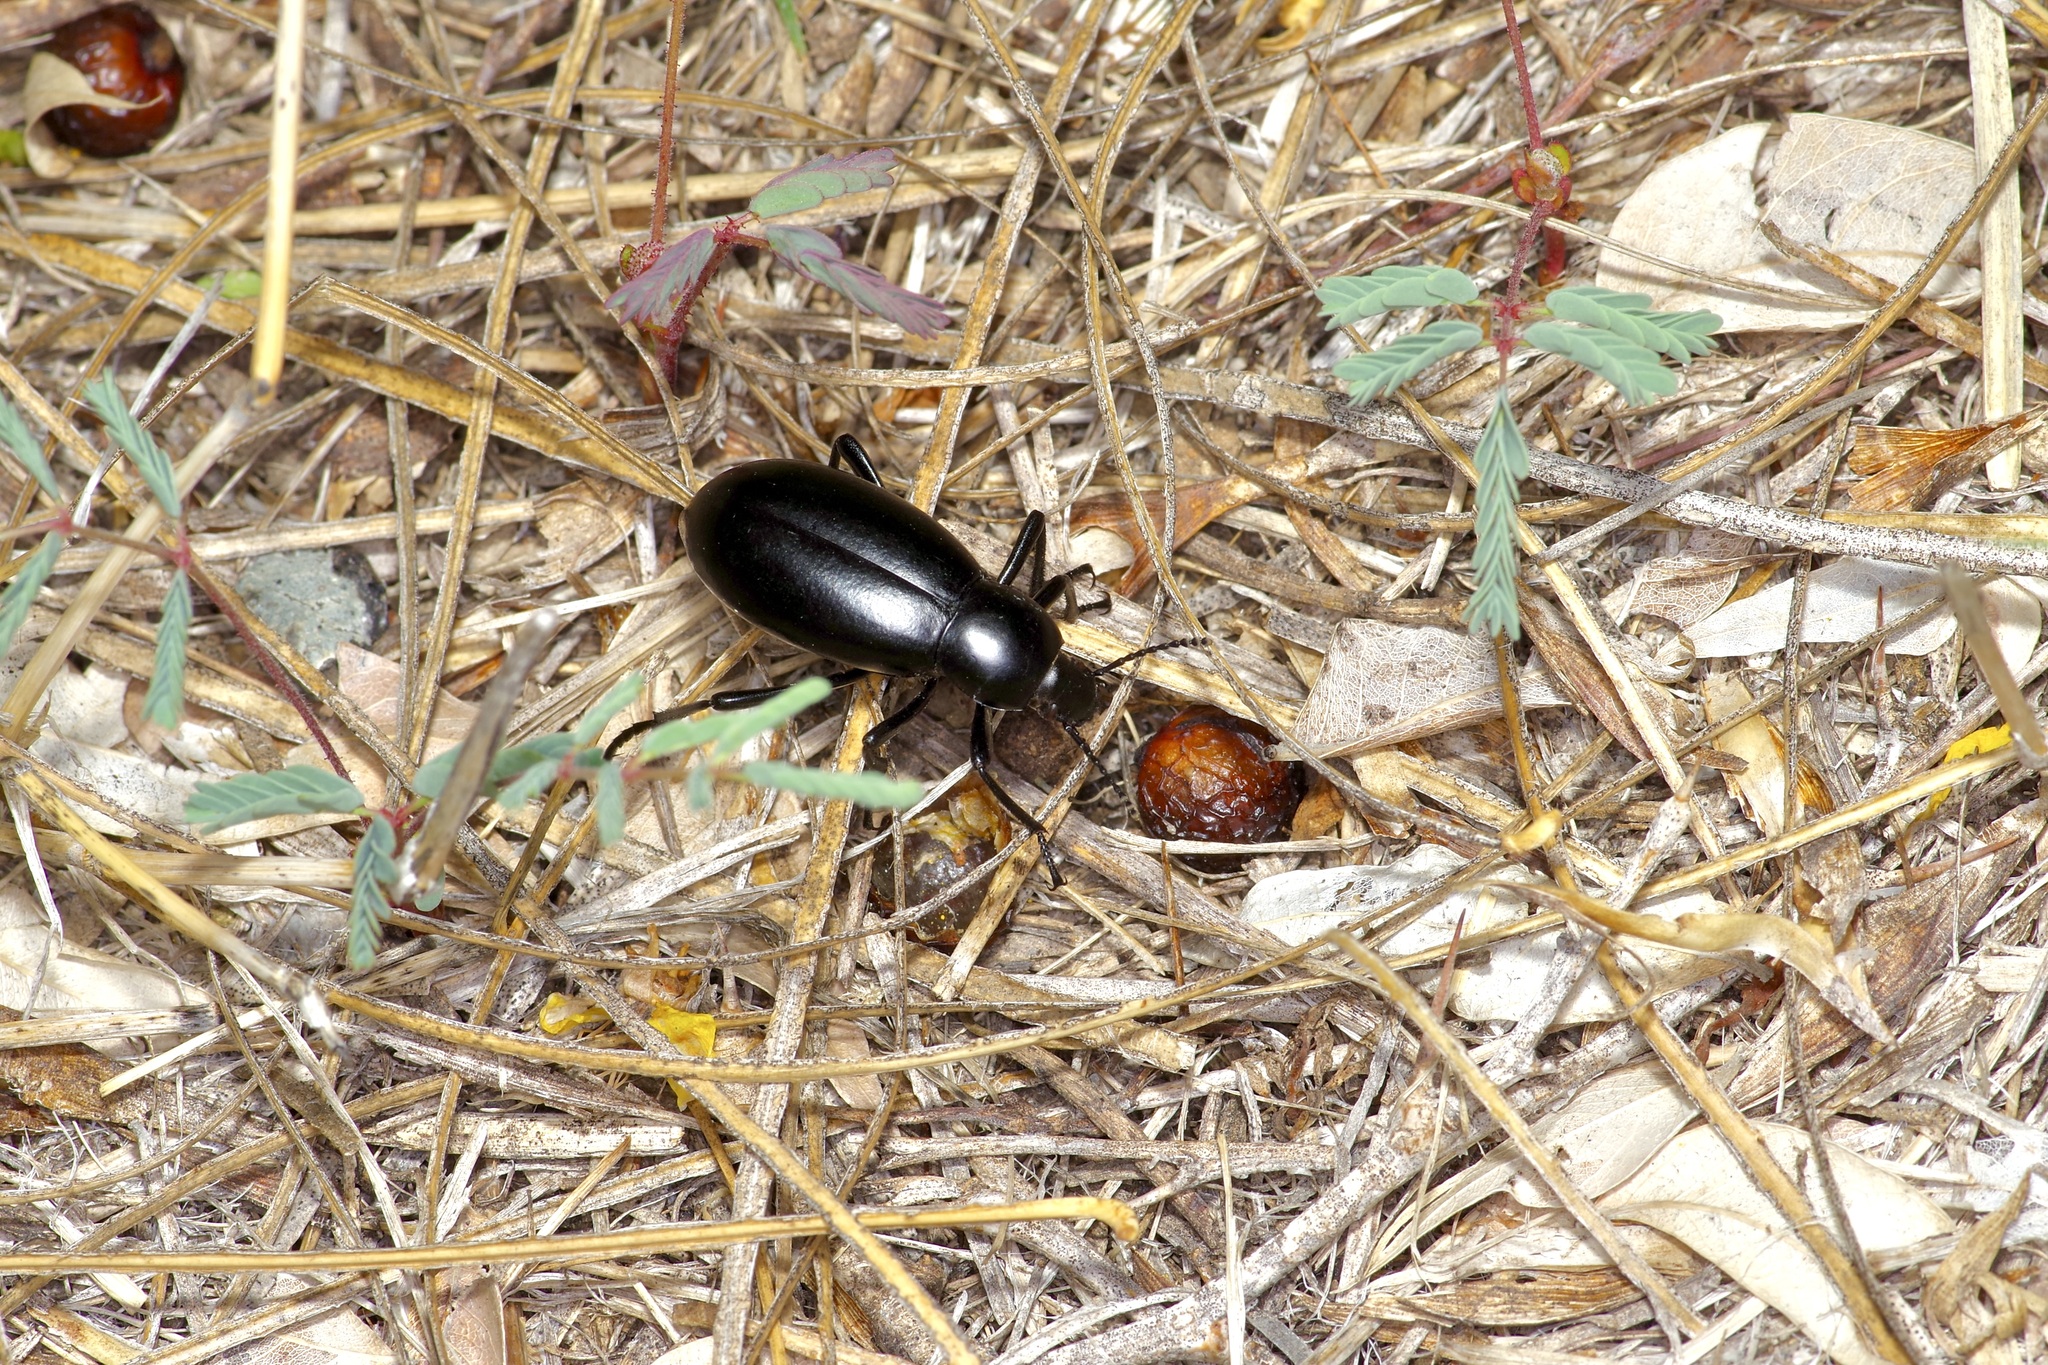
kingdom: Animalia
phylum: Arthropoda
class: Insecta
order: Coleoptera
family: Tenebrionidae
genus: Eleodes
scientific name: Eleodes longicollis
